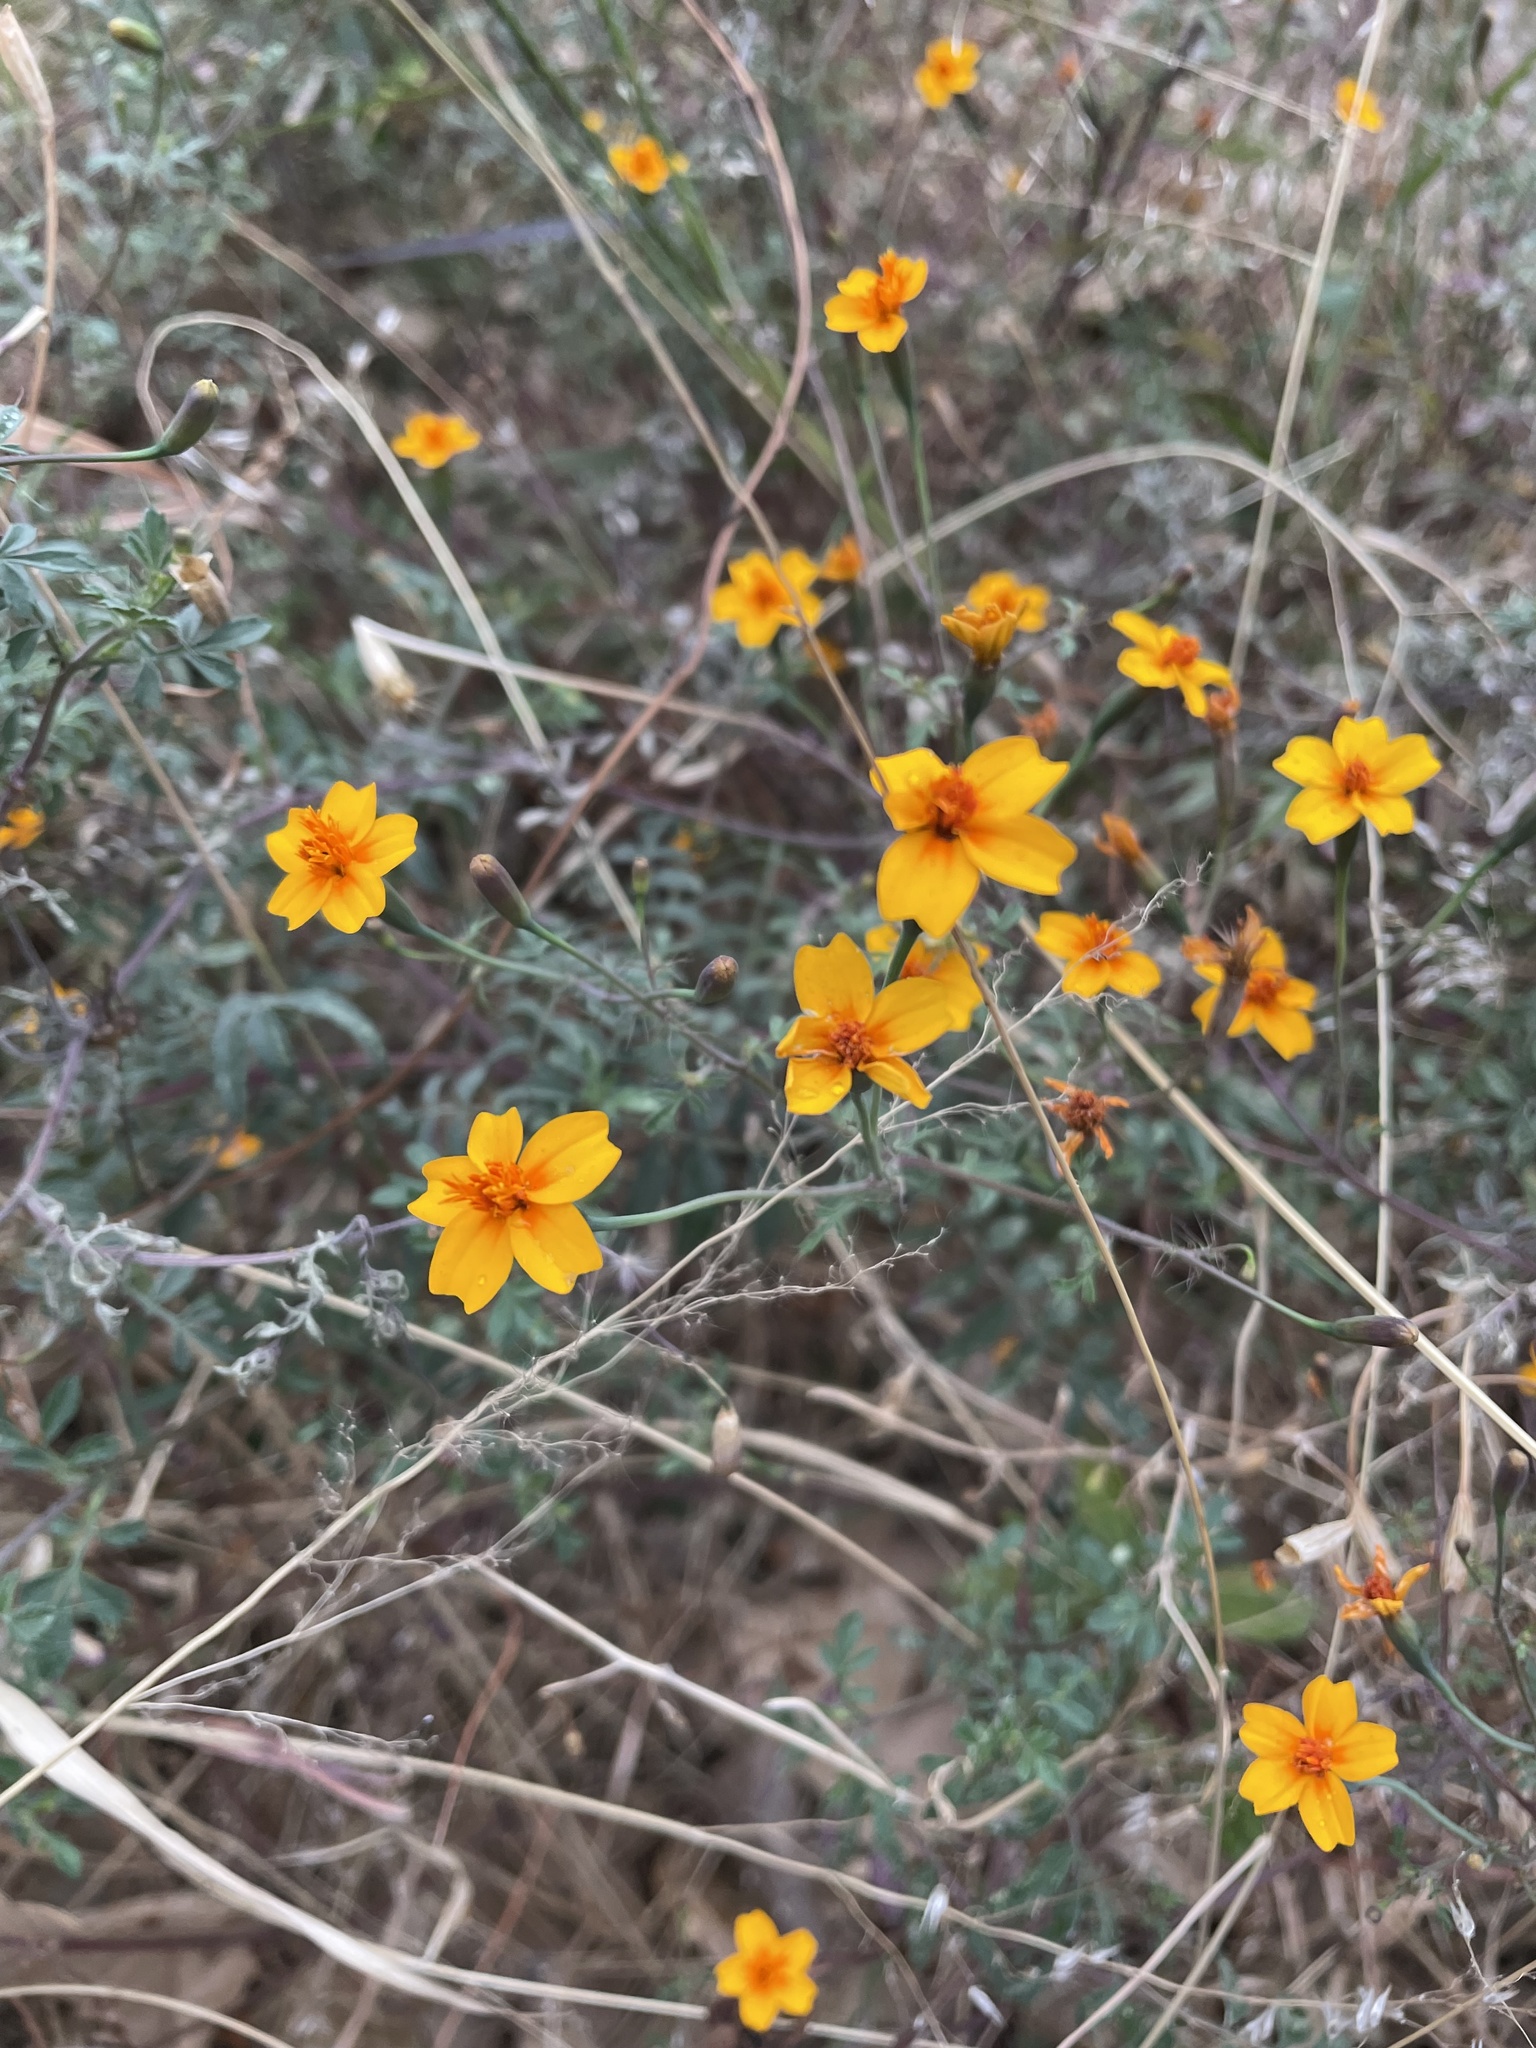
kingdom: Plantae
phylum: Tracheophyta
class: Magnoliopsida
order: Asterales
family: Asteraceae
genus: Tagetes
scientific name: Tagetes lunulata
